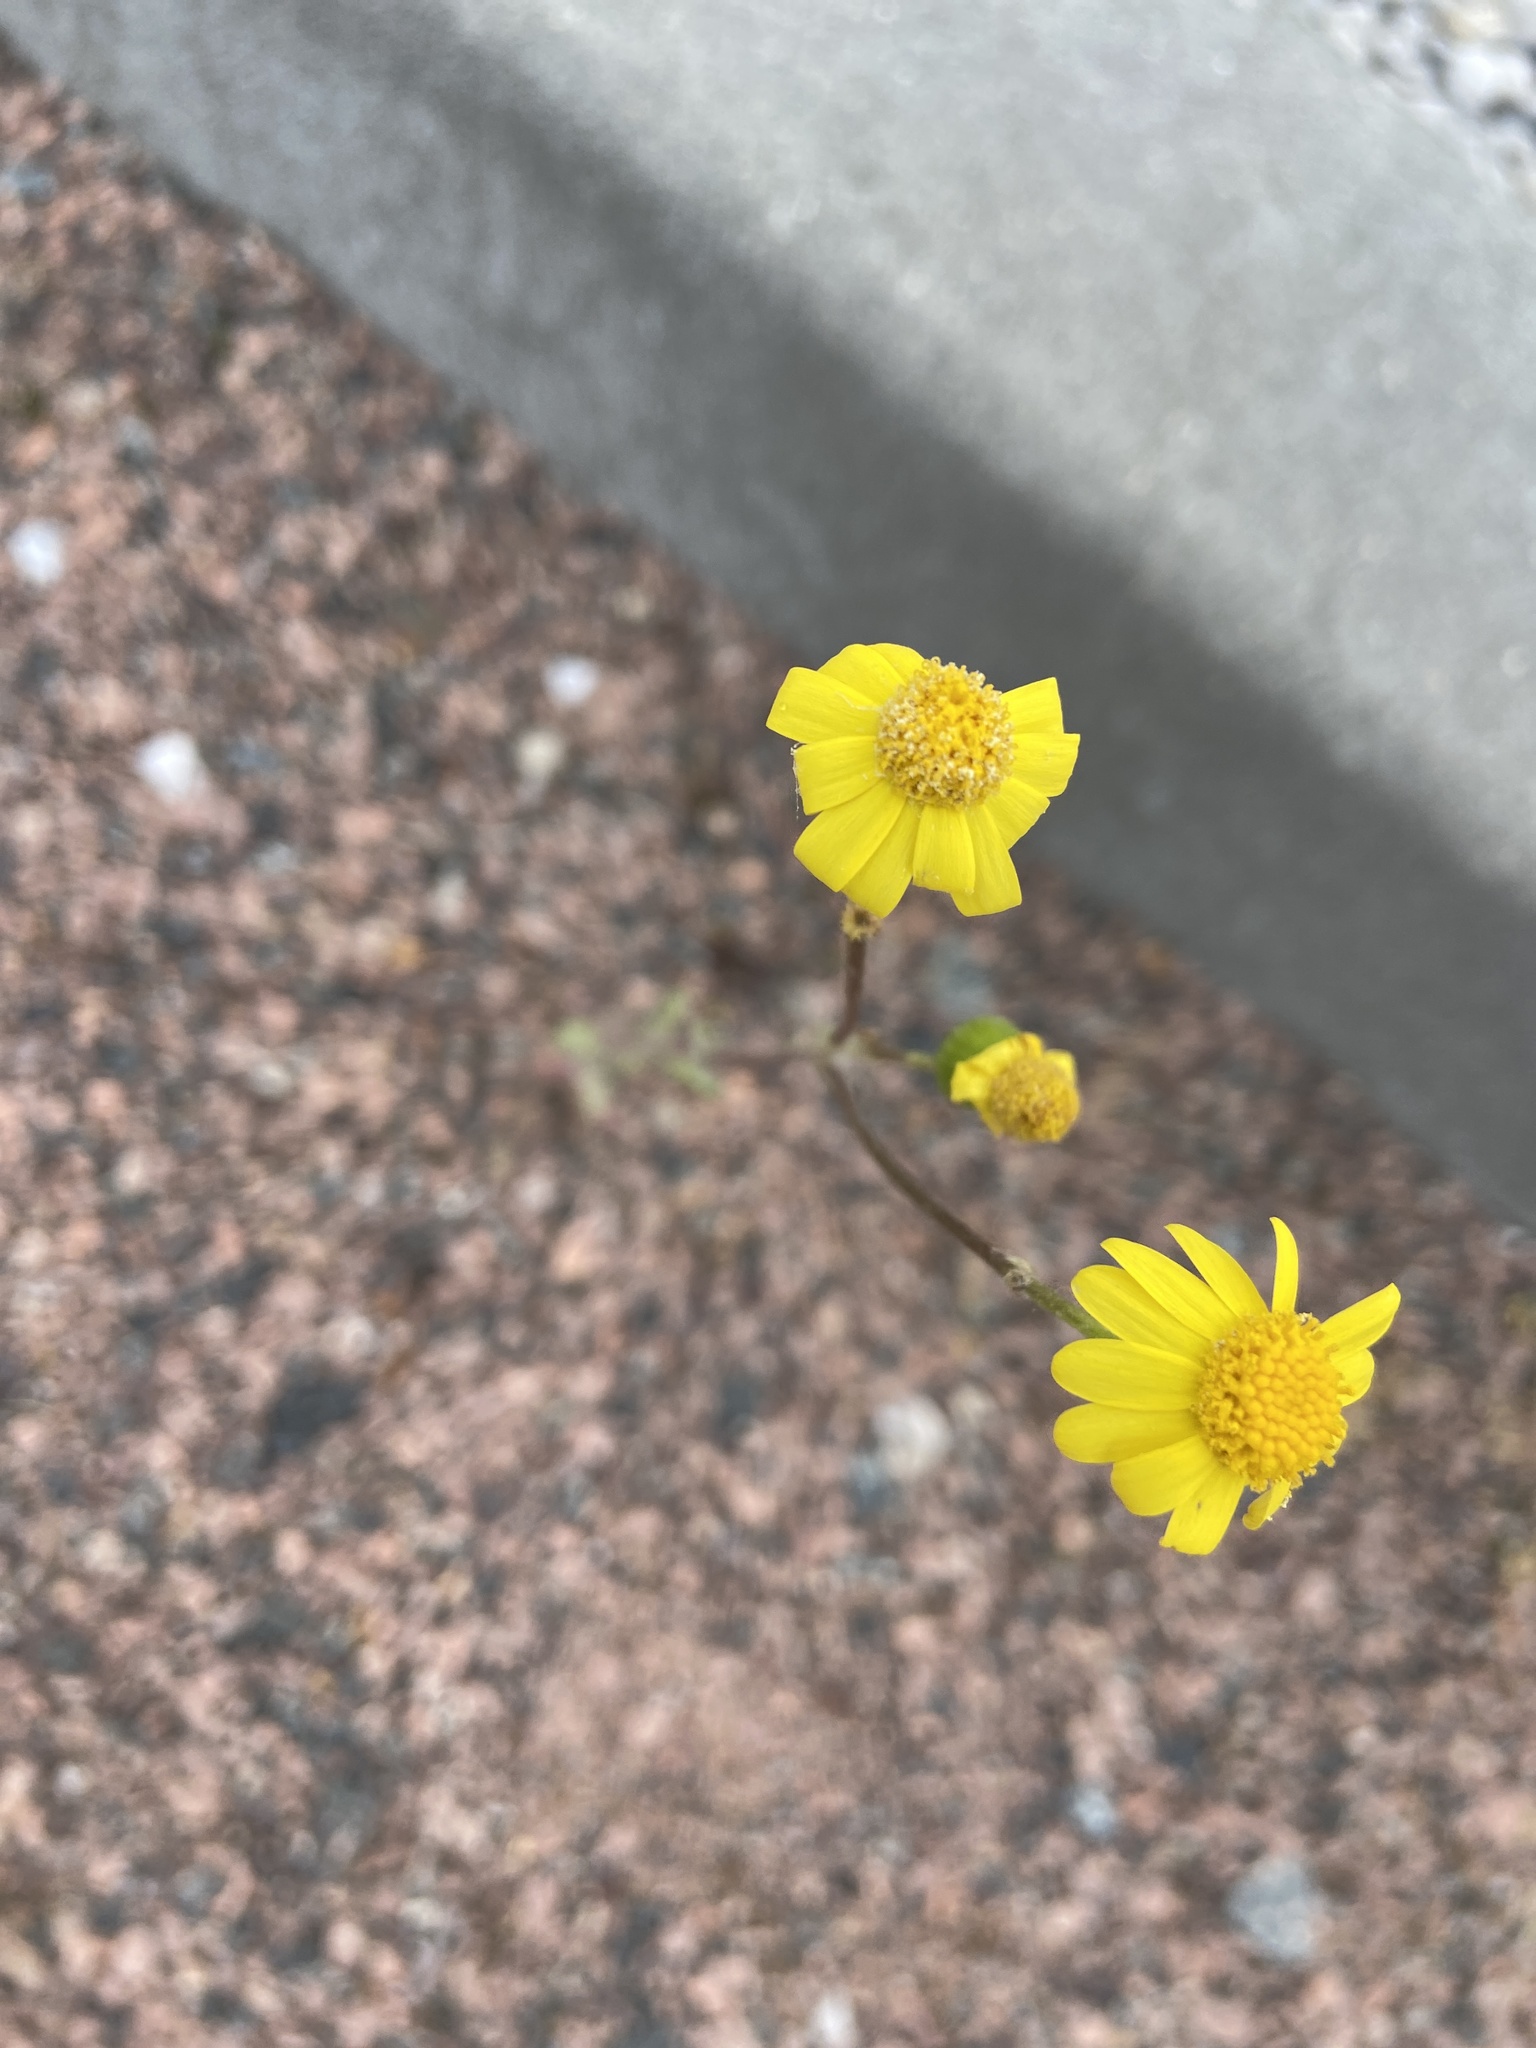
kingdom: Plantae
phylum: Tracheophyta
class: Magnoliopsida
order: Asterales
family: Asteraceae
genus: Senecio
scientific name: Senecio vernalis
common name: Eastern groundsel
